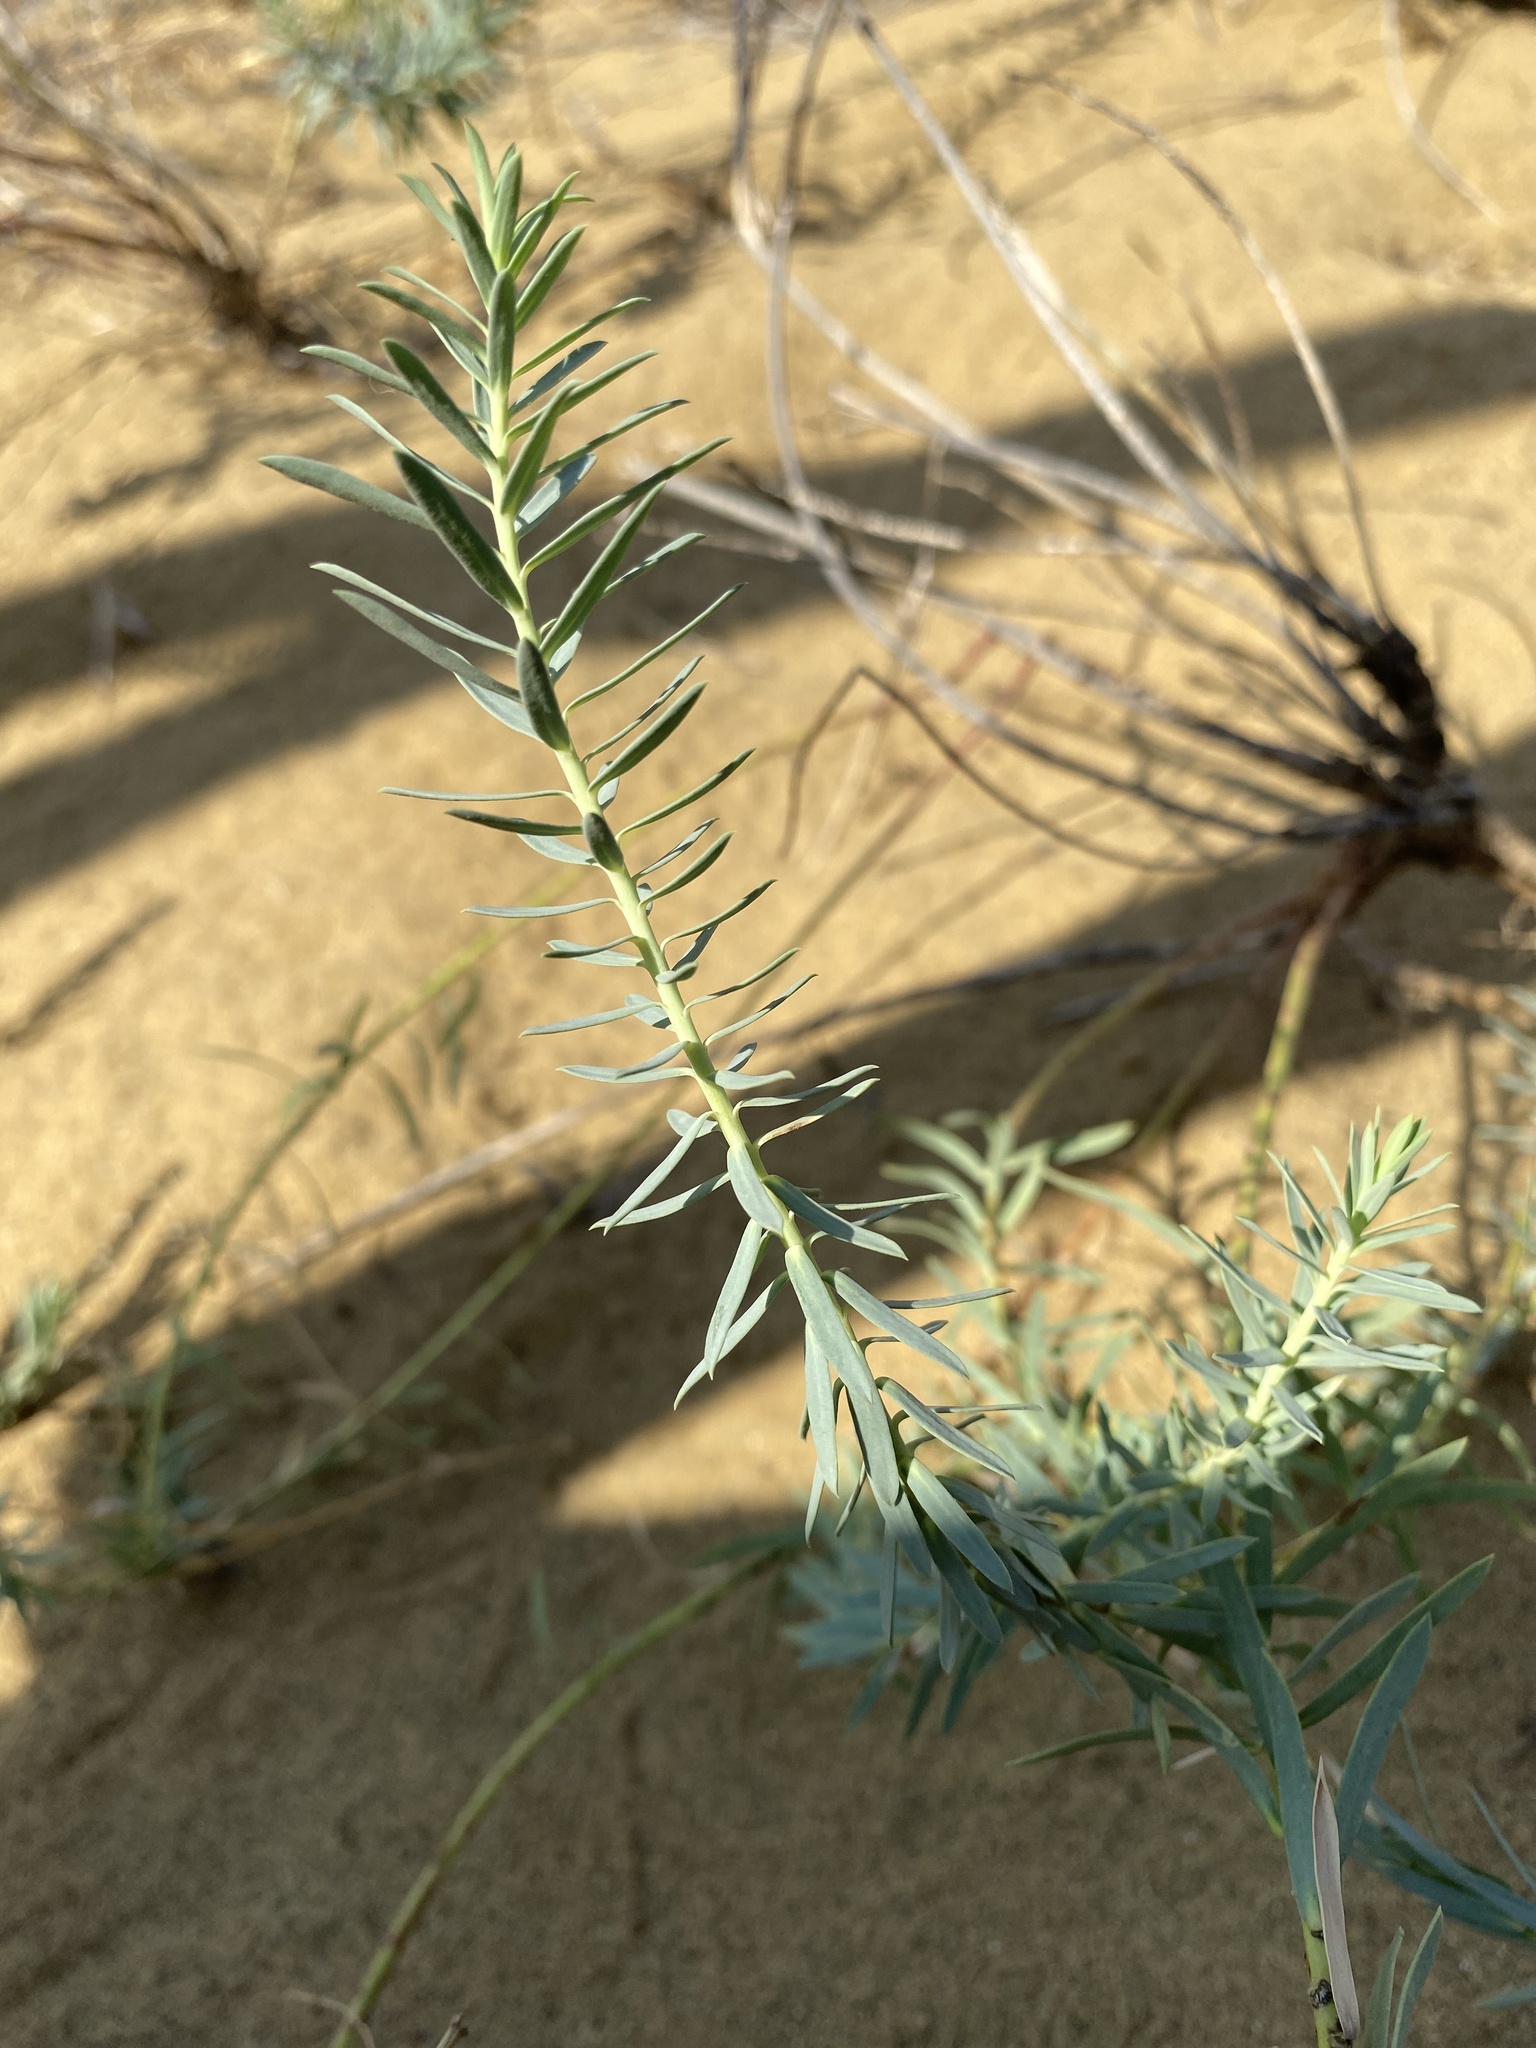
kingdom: Plantae
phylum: Tracheophyta
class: Magnoliopsida
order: Malpighiales
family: Euphorbiaceae
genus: Euphorbia
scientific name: Euphorbia seguieriana
